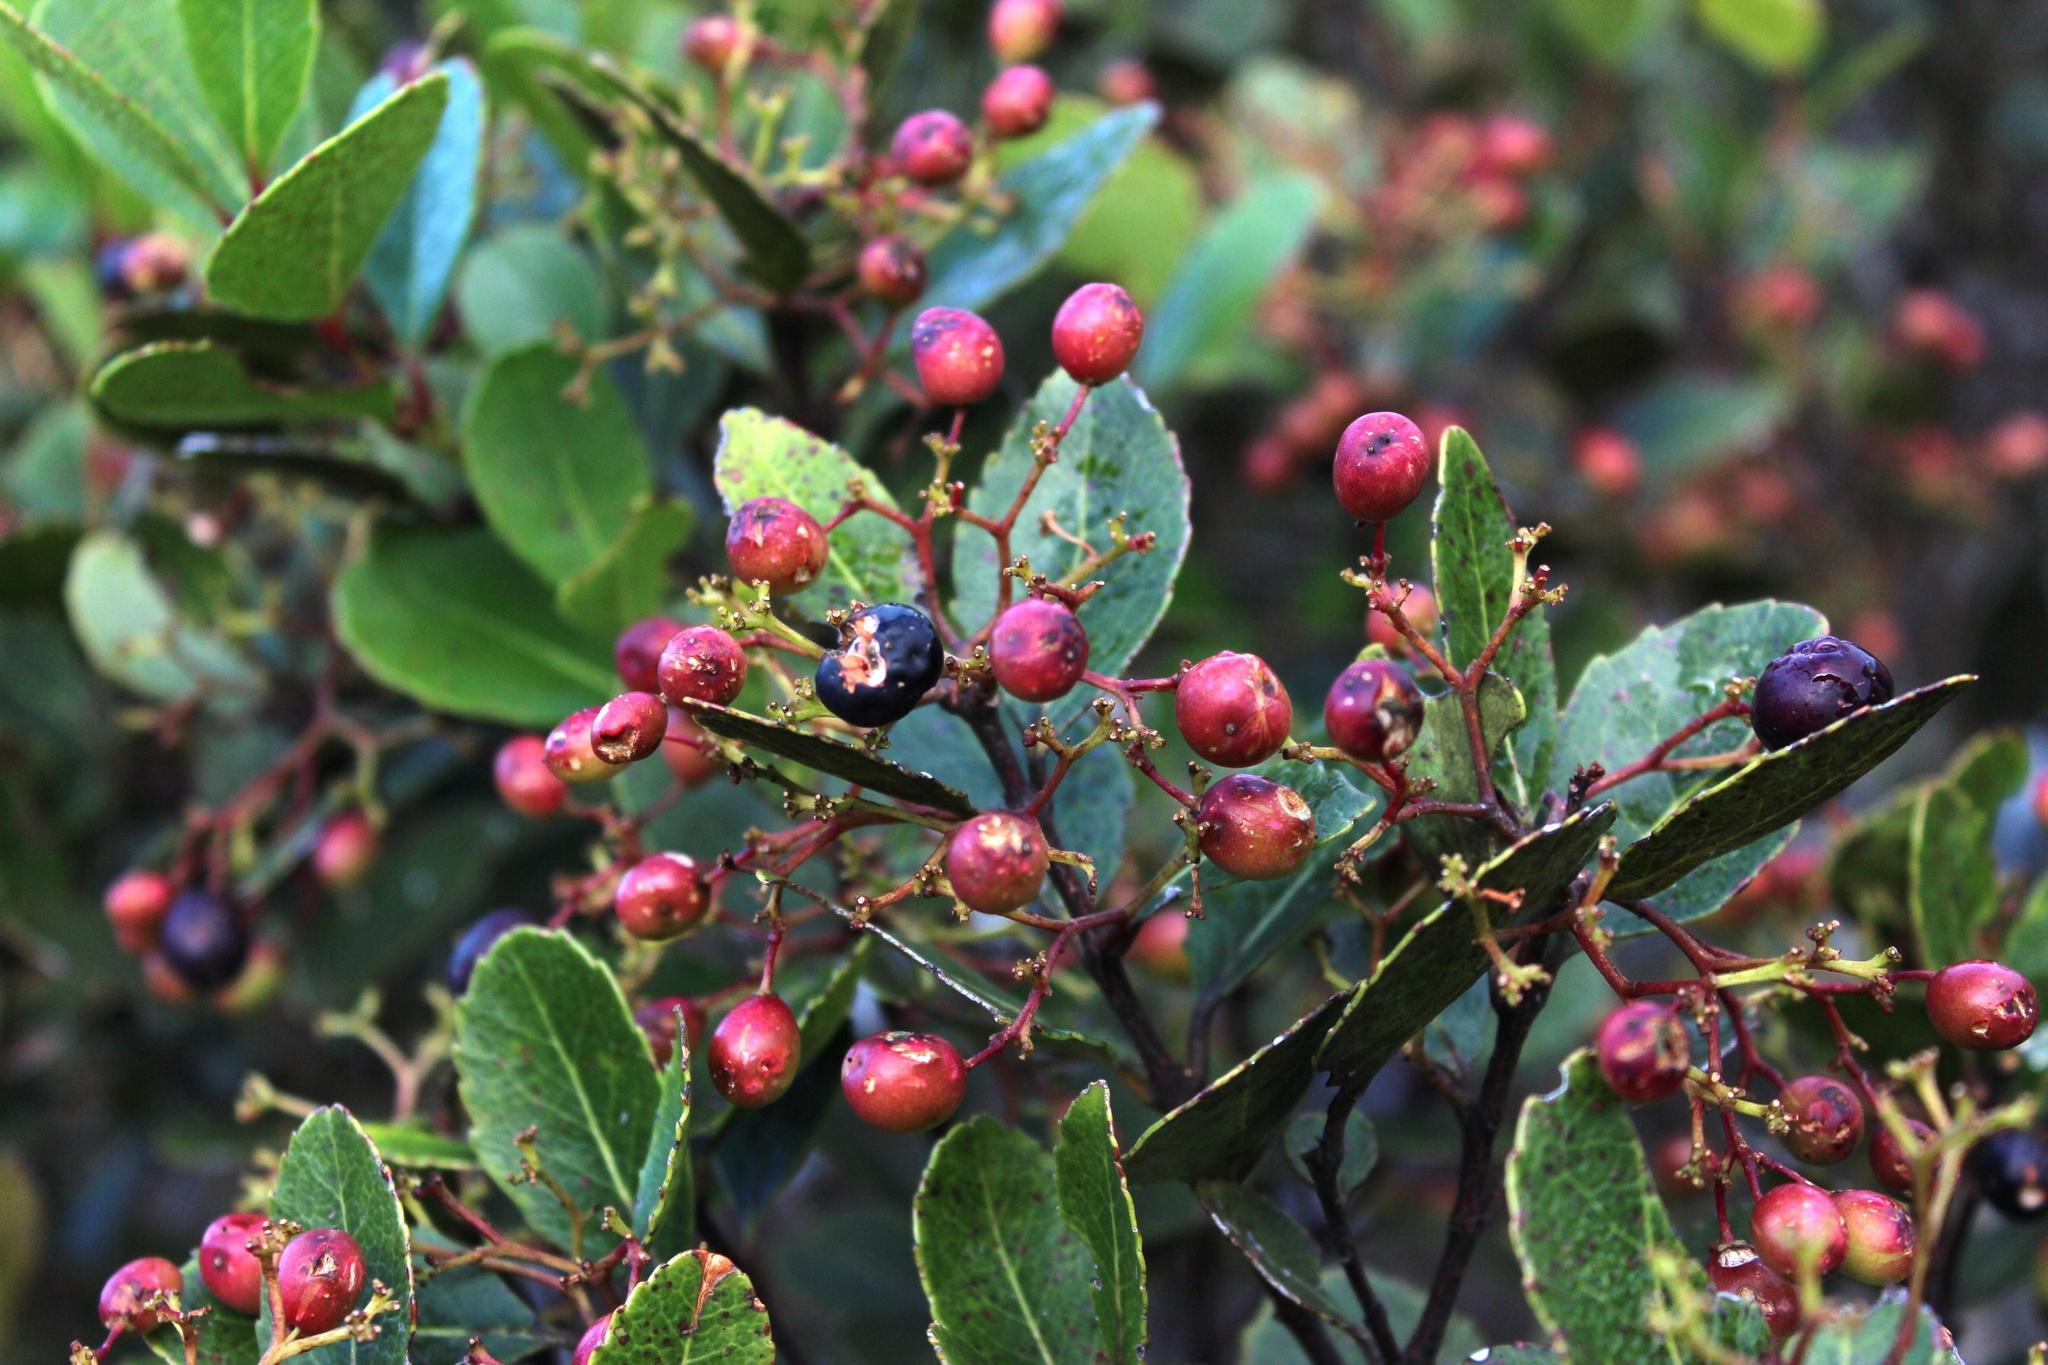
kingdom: Plantae
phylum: Tracheophyta
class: Magnoliopsida
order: Celastrales
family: Celastraceae
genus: Cassine
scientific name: Cassine peragua
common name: Cape saffron
